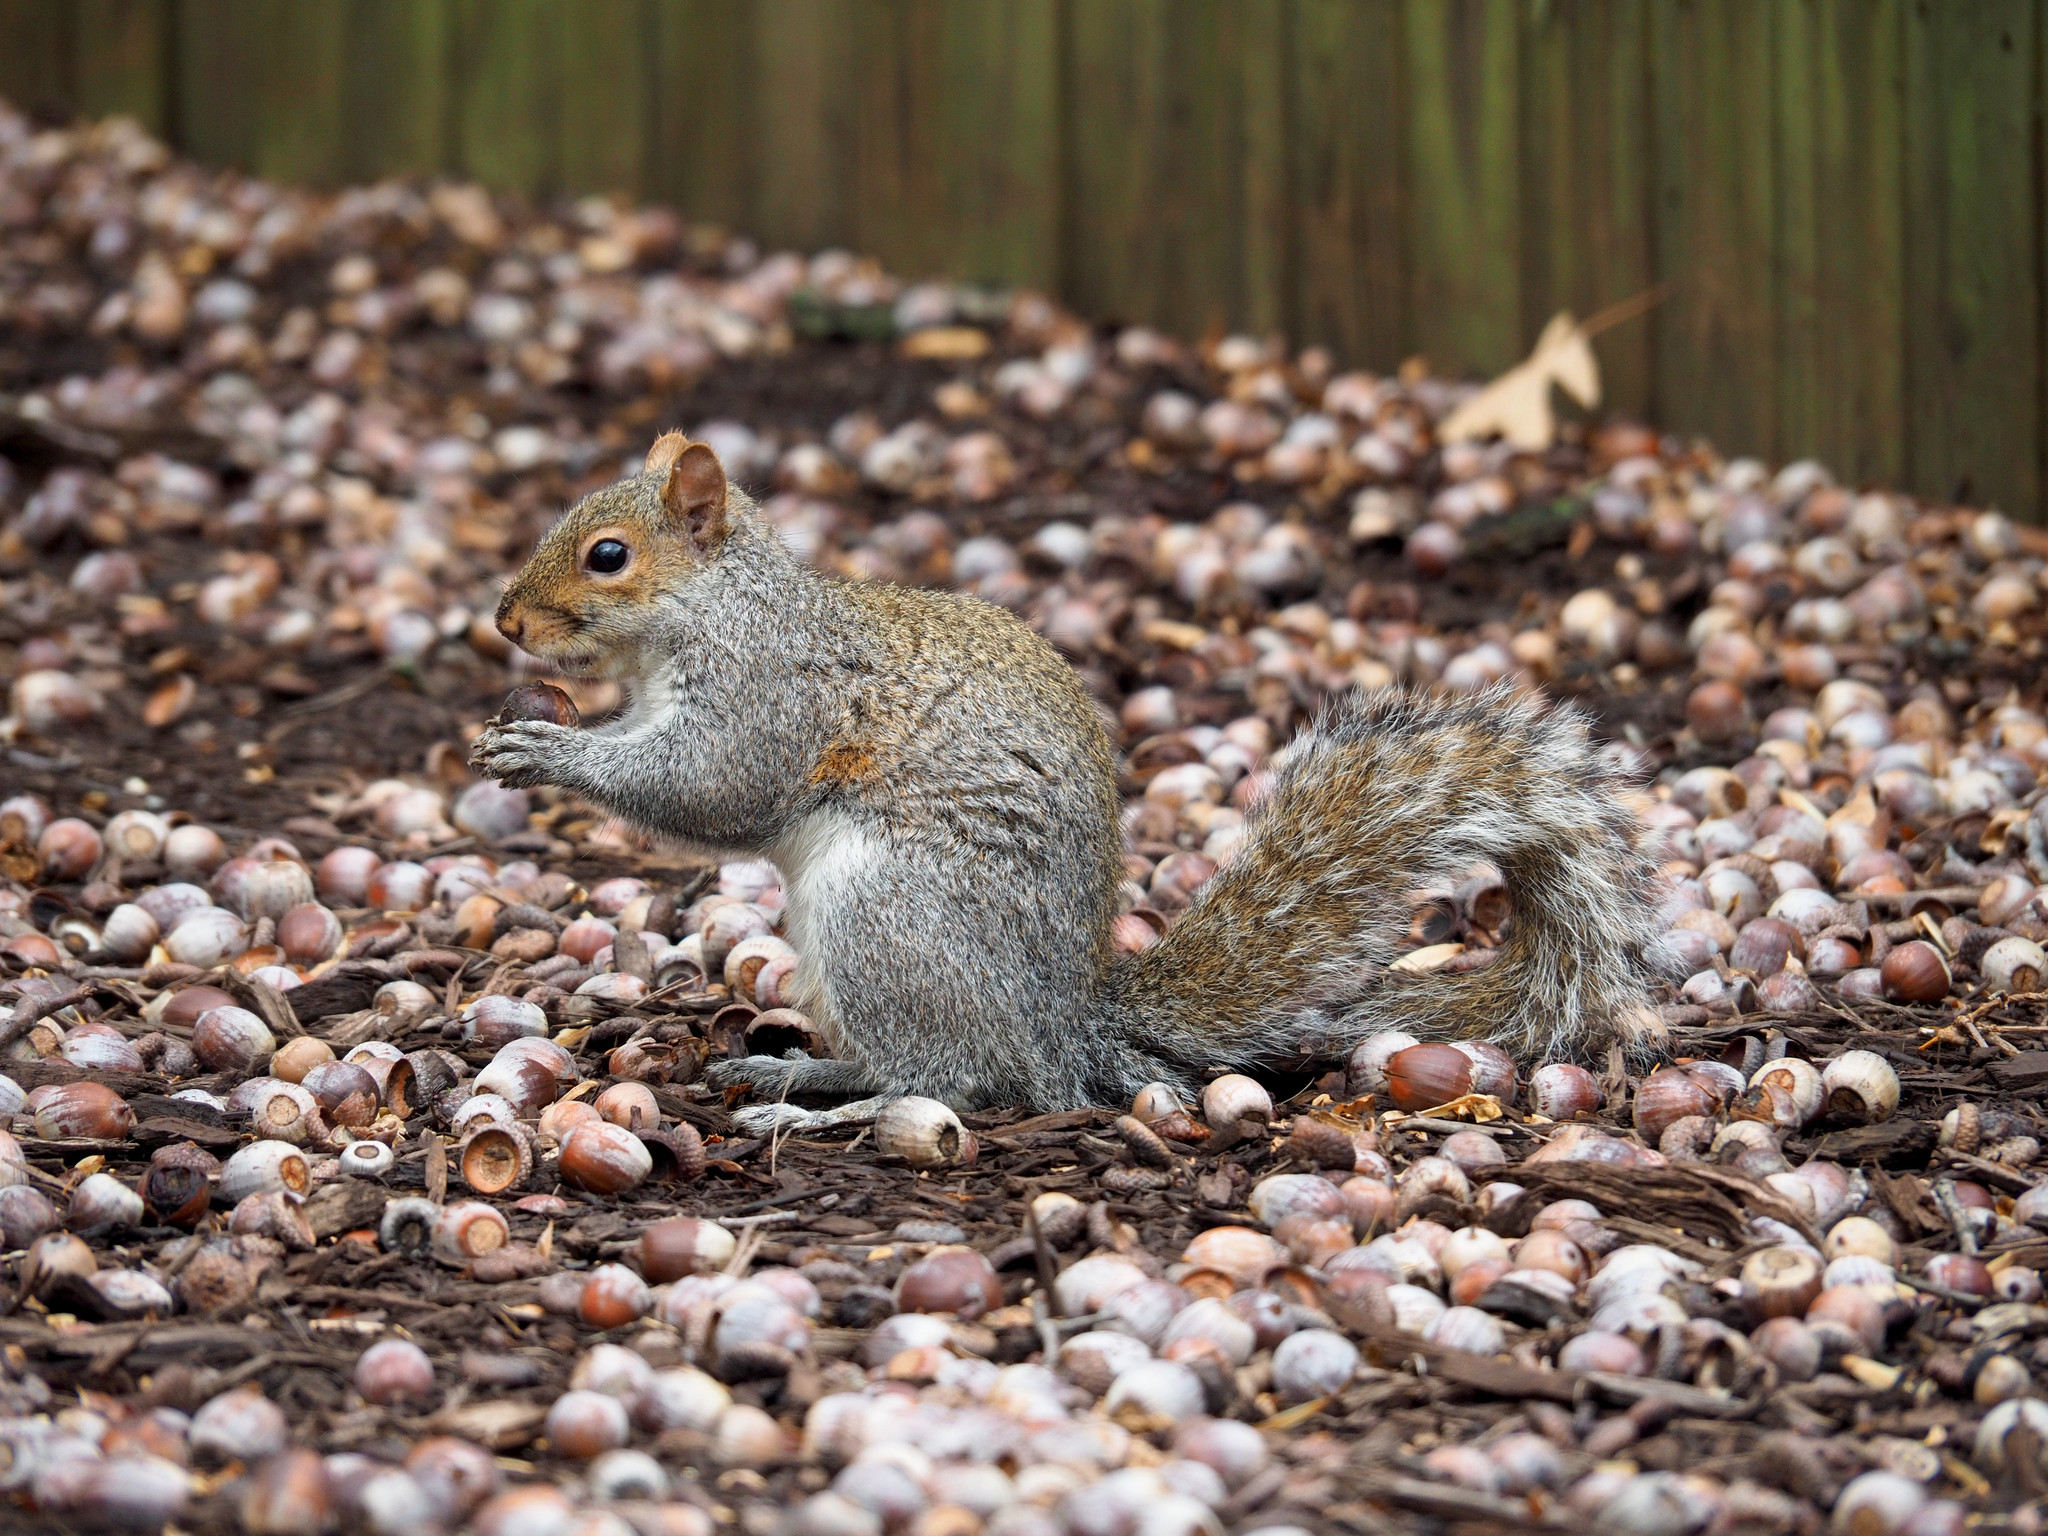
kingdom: Animalia
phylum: Chordata
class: Mammalia
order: Rodentia
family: Sciuridae
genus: Sciurus
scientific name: Sciurus carolinensis
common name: Eastern gray squirrel
